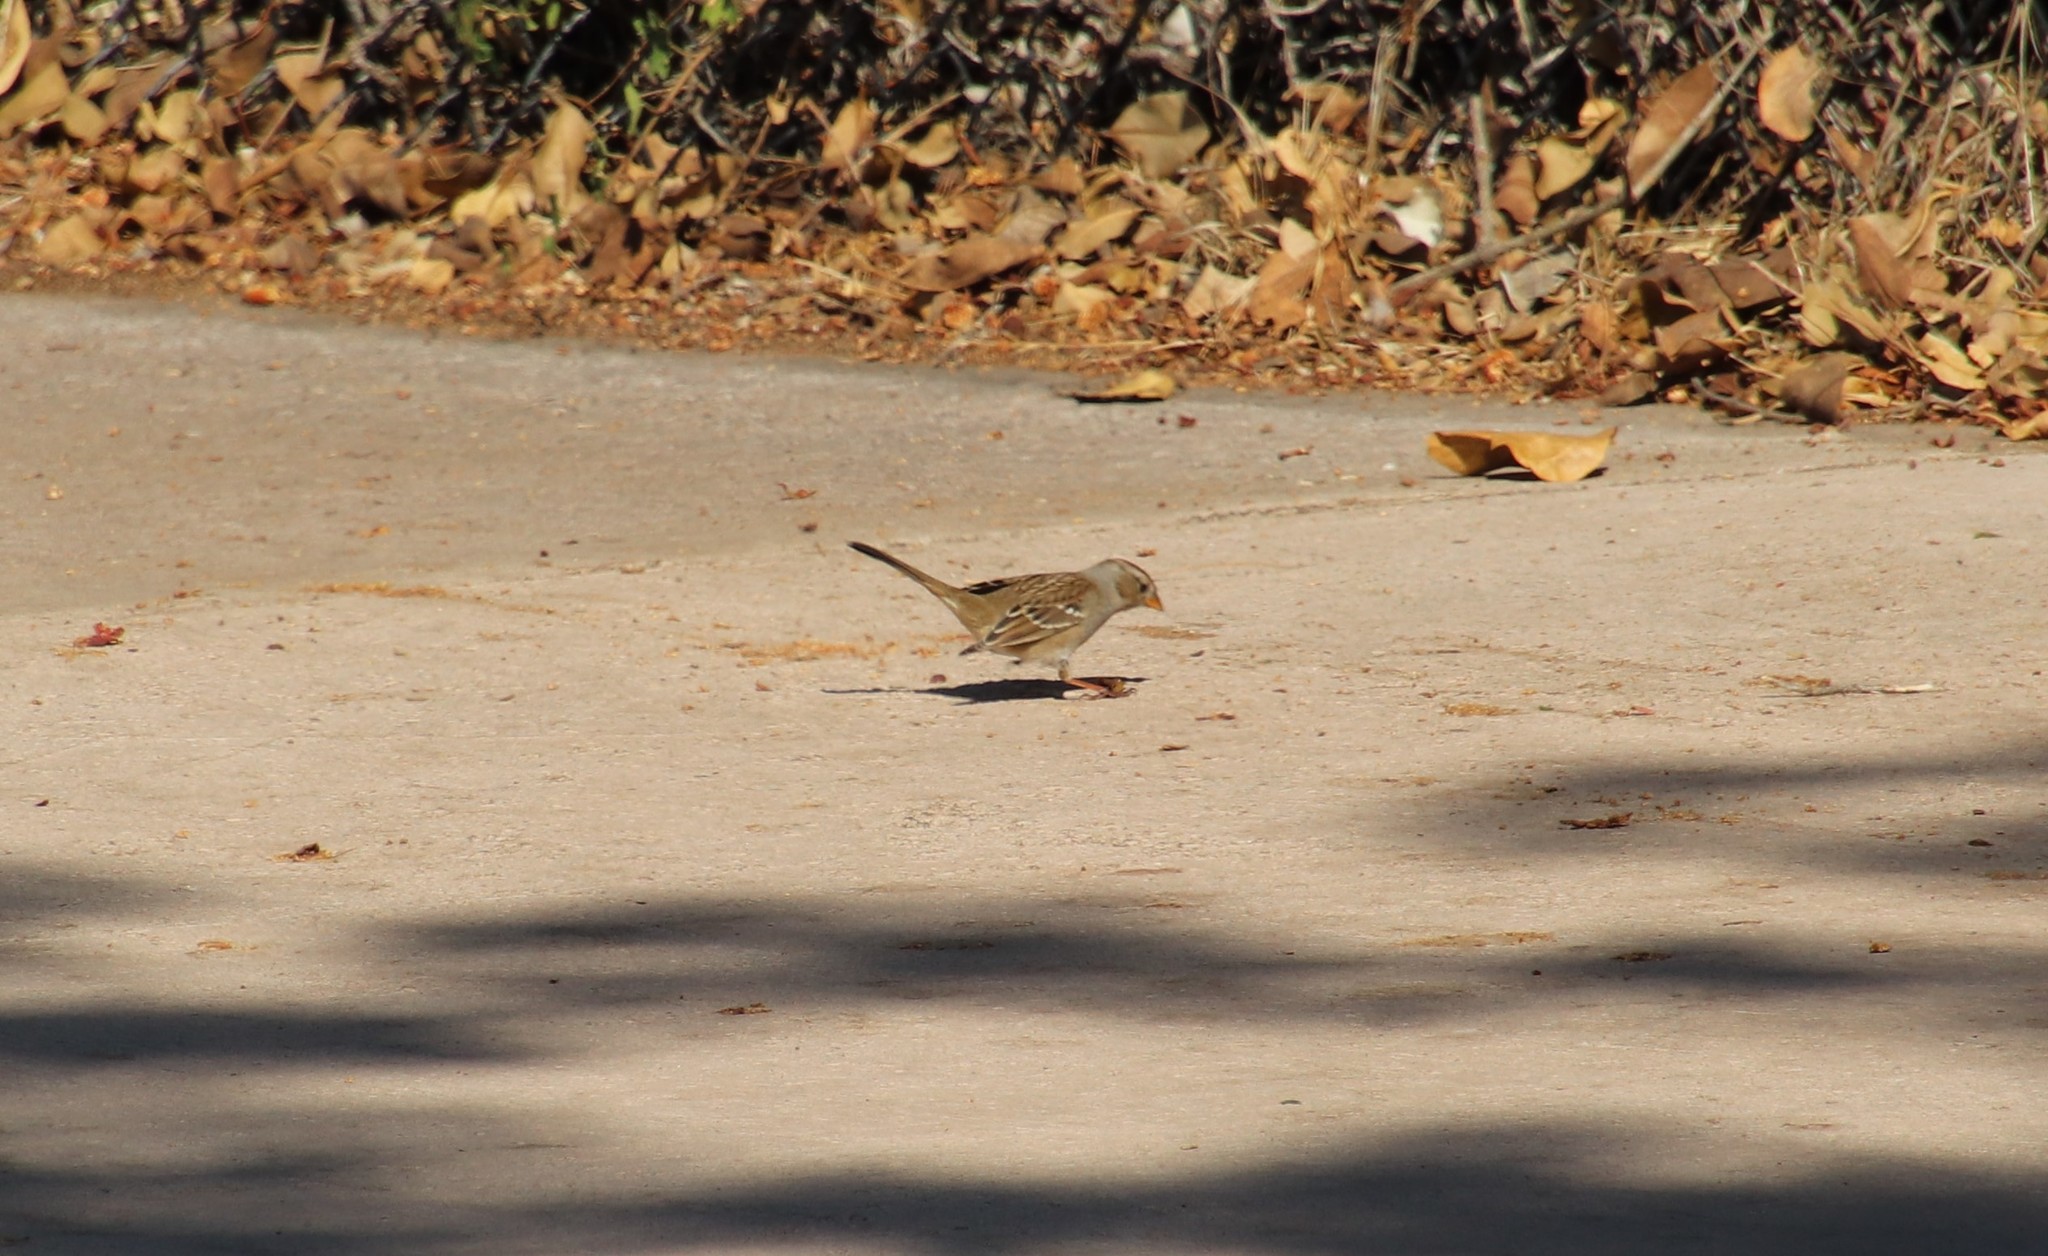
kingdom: Animalia
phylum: Chordata
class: Aves
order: Passeriformes
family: Passerellidae
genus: Zonotrichia
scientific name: Zonotrichia leucophrys
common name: White-crowned sparrow
